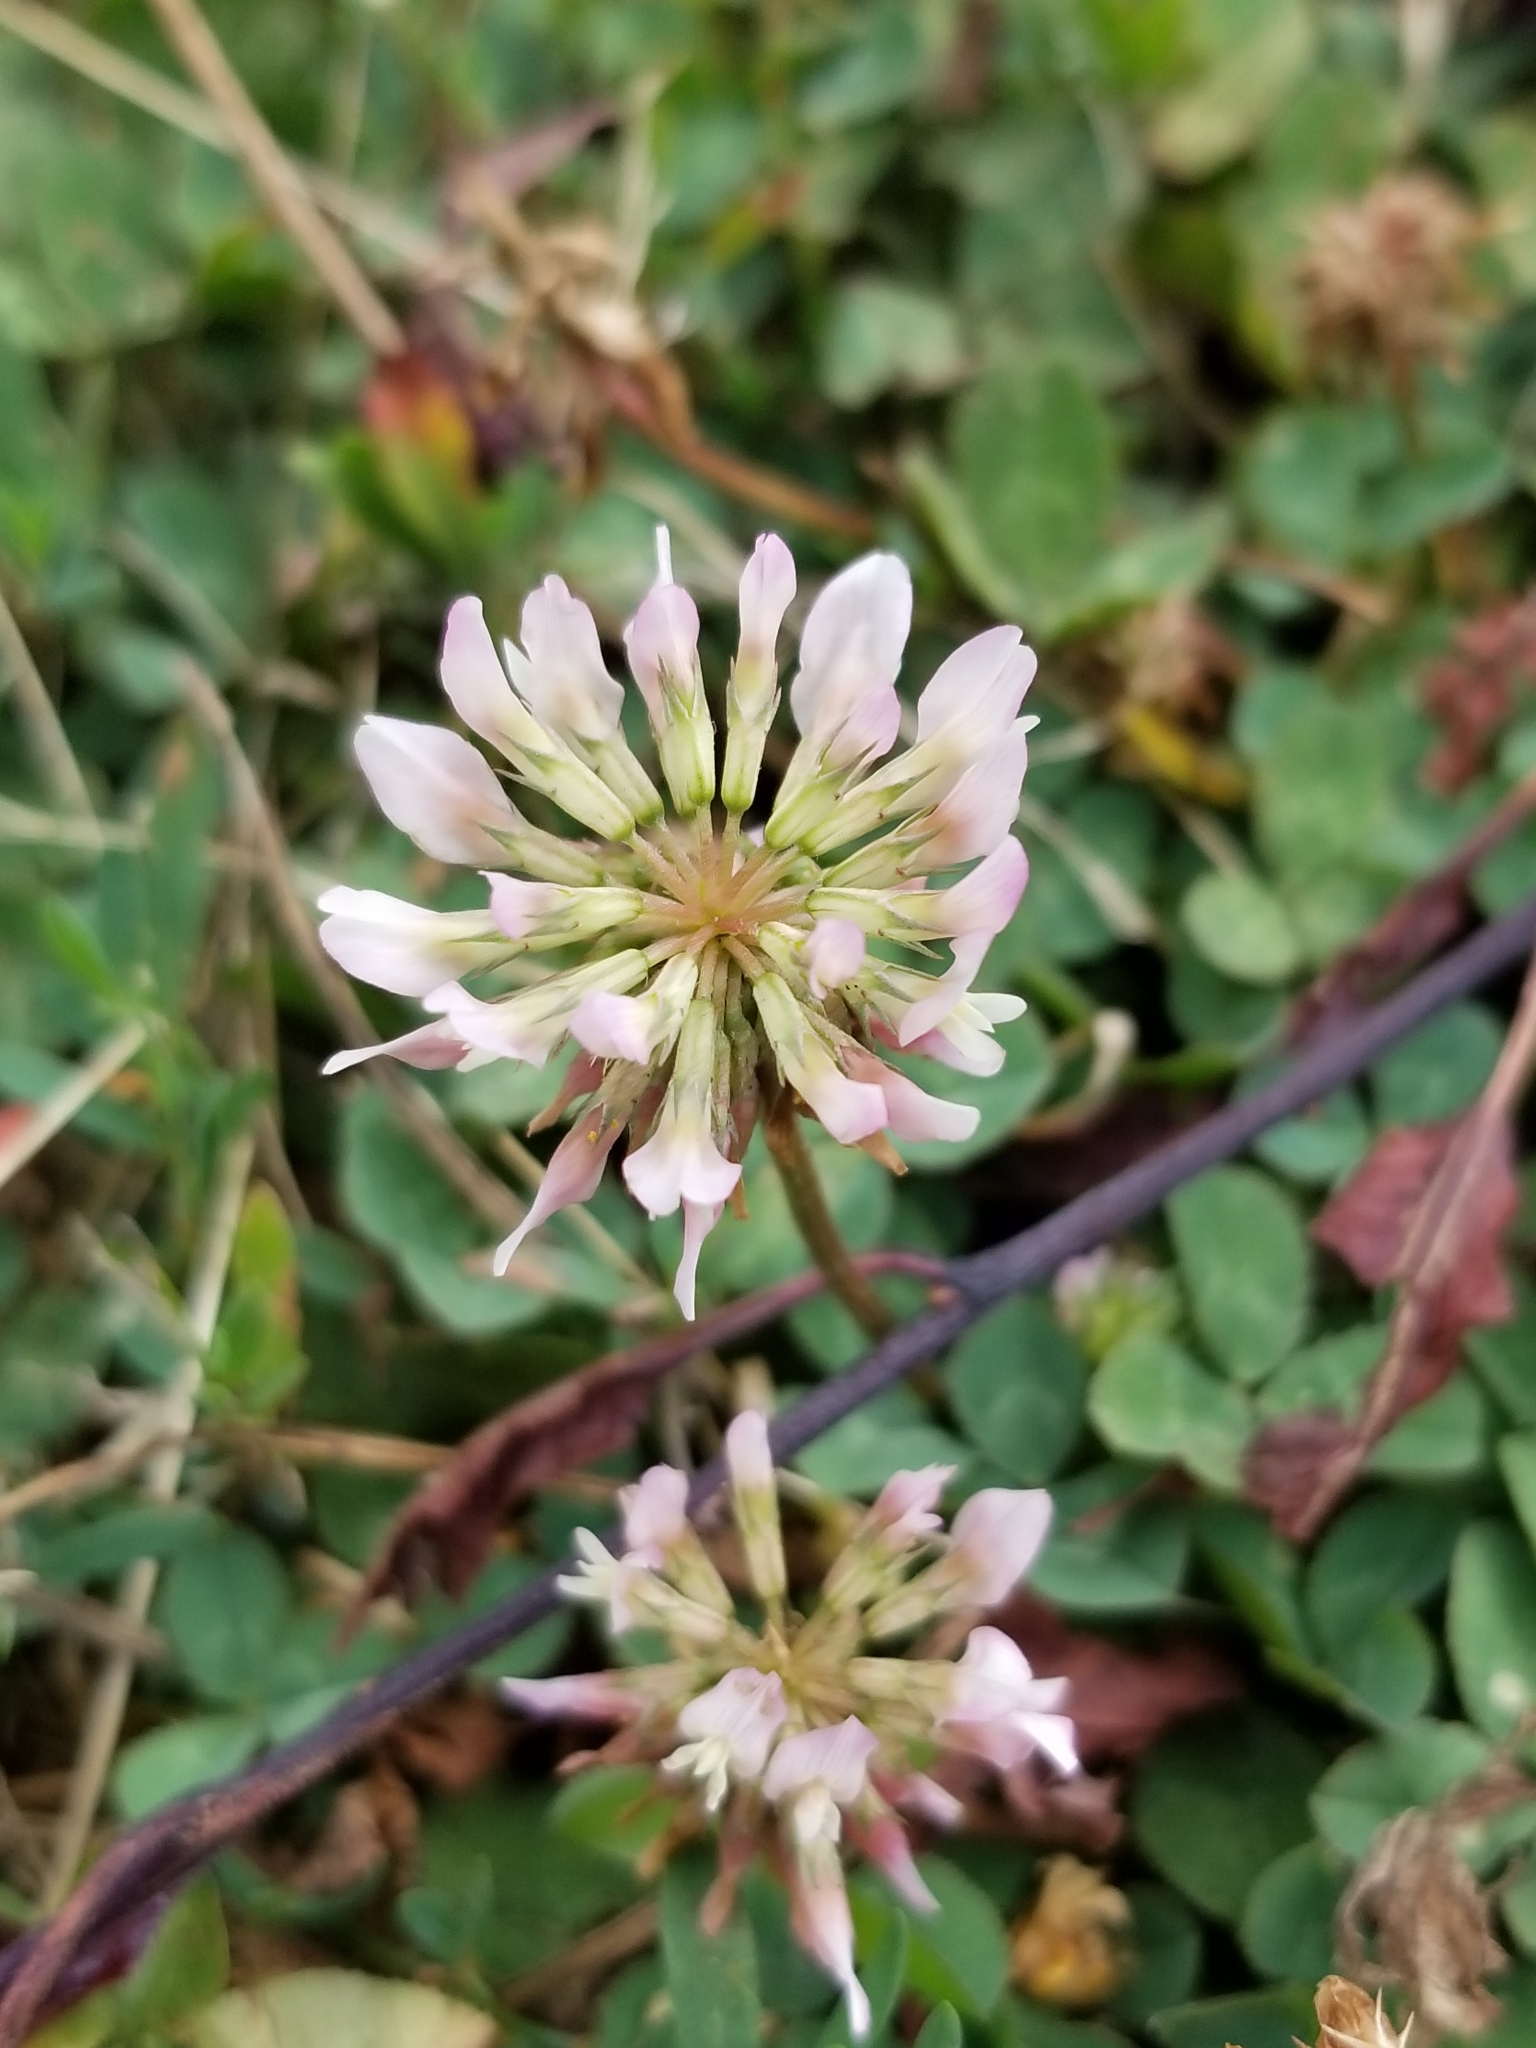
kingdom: Plantae
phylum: Tracheophyta
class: Magnoliopsida
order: Fabales
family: Fabaceae
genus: Trifolium
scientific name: Trifolium repens
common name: White clover
